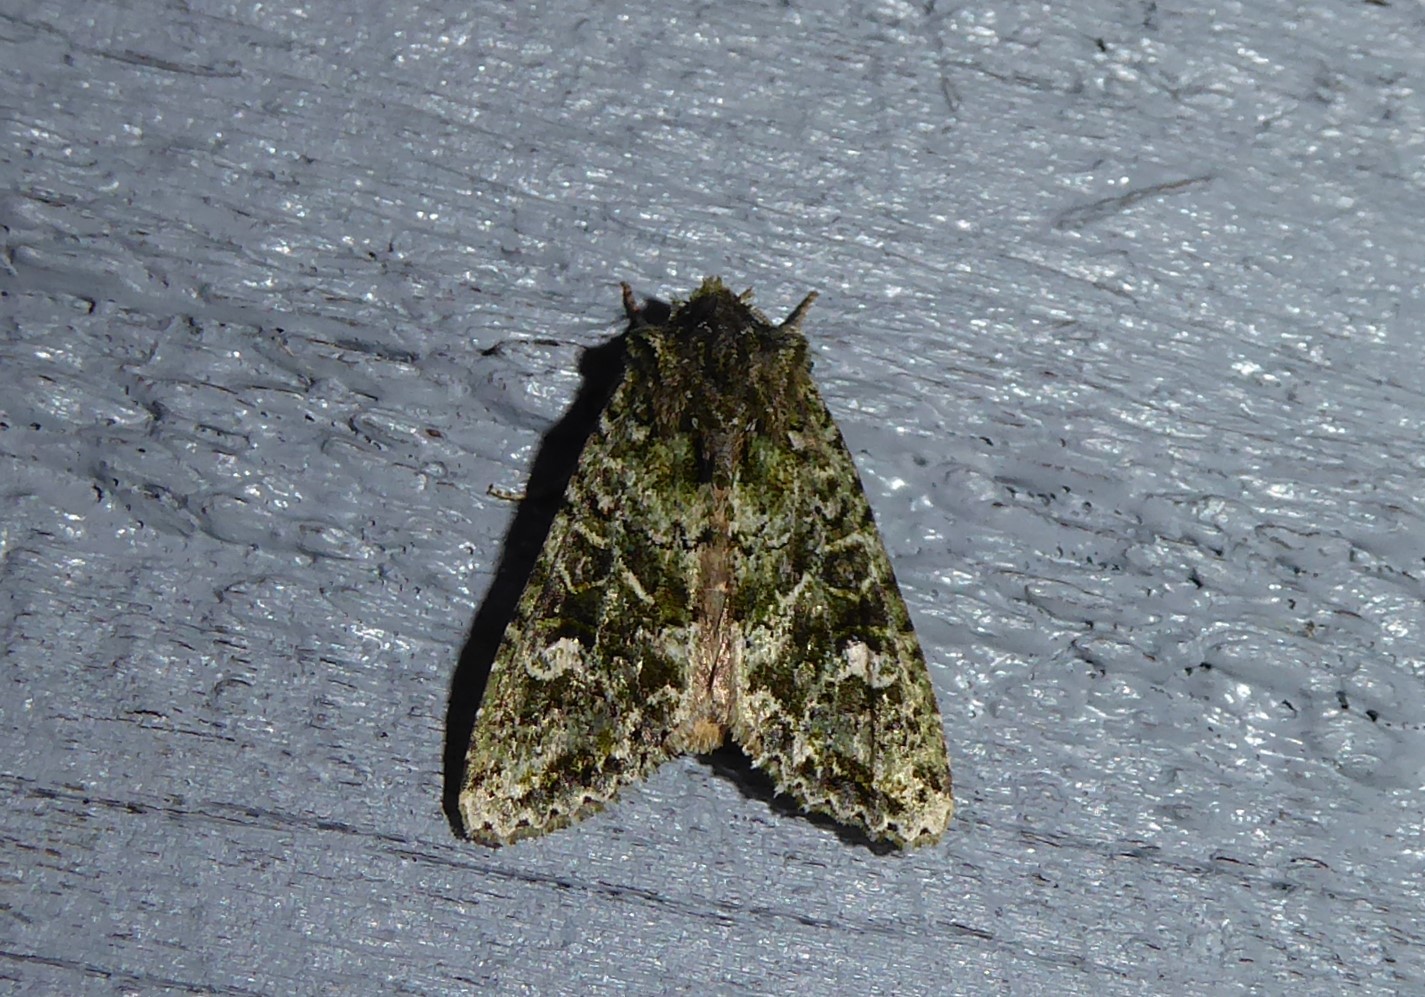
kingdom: Animalia
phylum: Arthropoda
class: Insecta
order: Lepidoptera
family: Noctuidae
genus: Ichneutica
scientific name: Ichneutica
